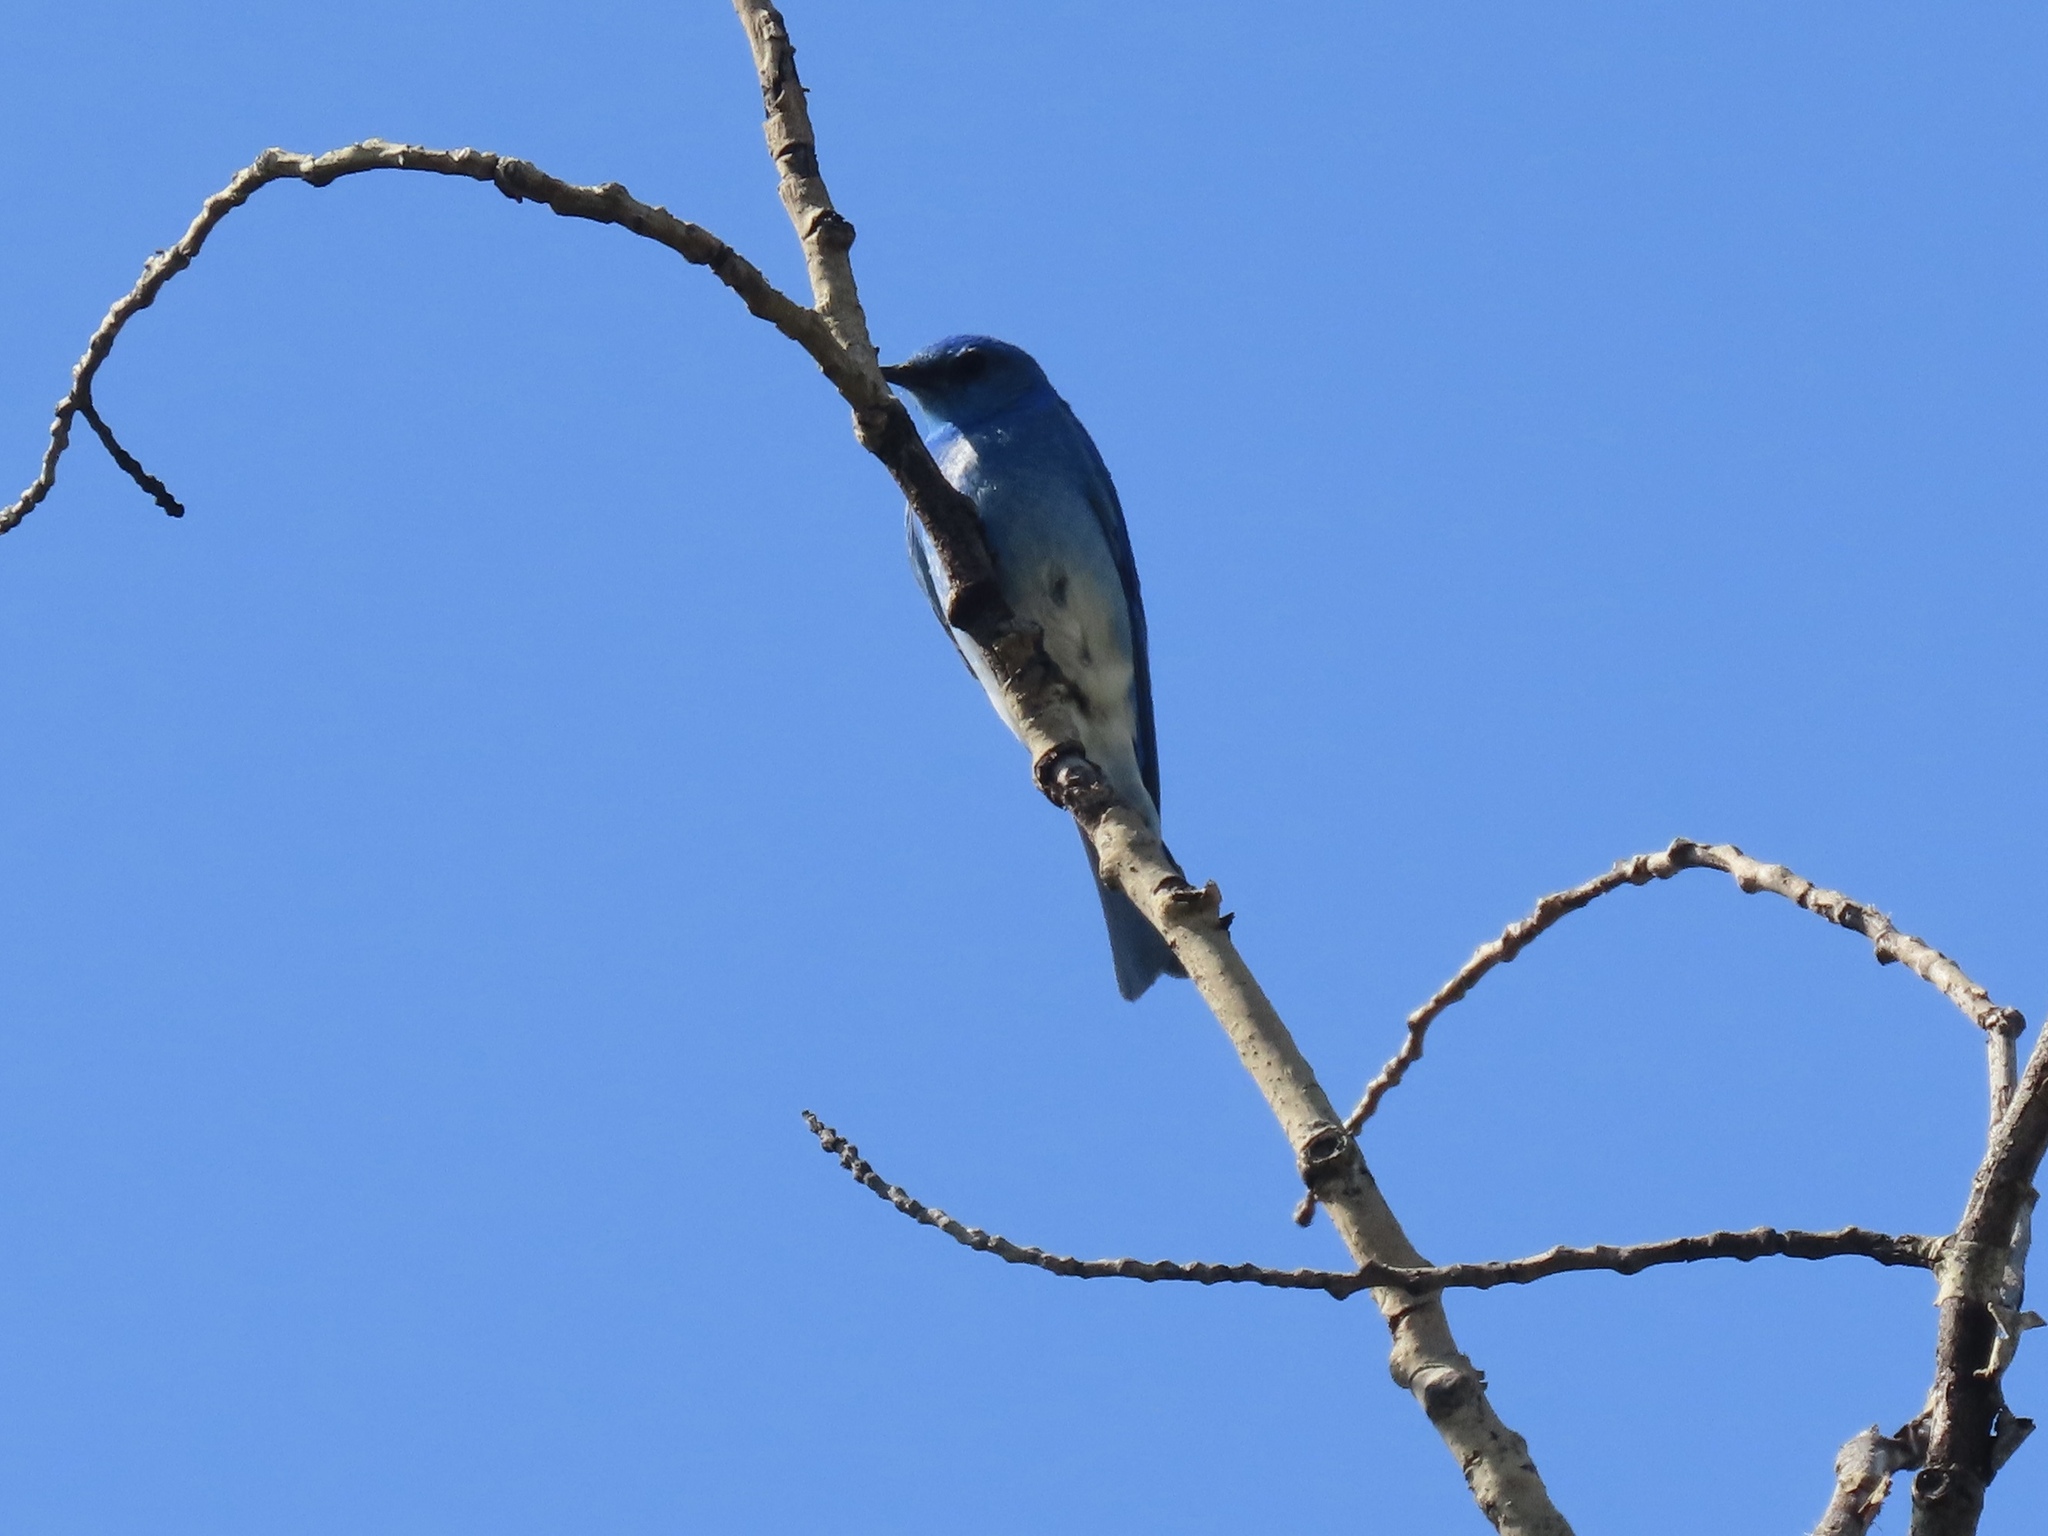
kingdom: Animalia
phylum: Chordata
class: Aves
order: Passeriformes
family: Turdidae
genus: Sialia
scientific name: Sialia currucoides
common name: Mountain bluebird
